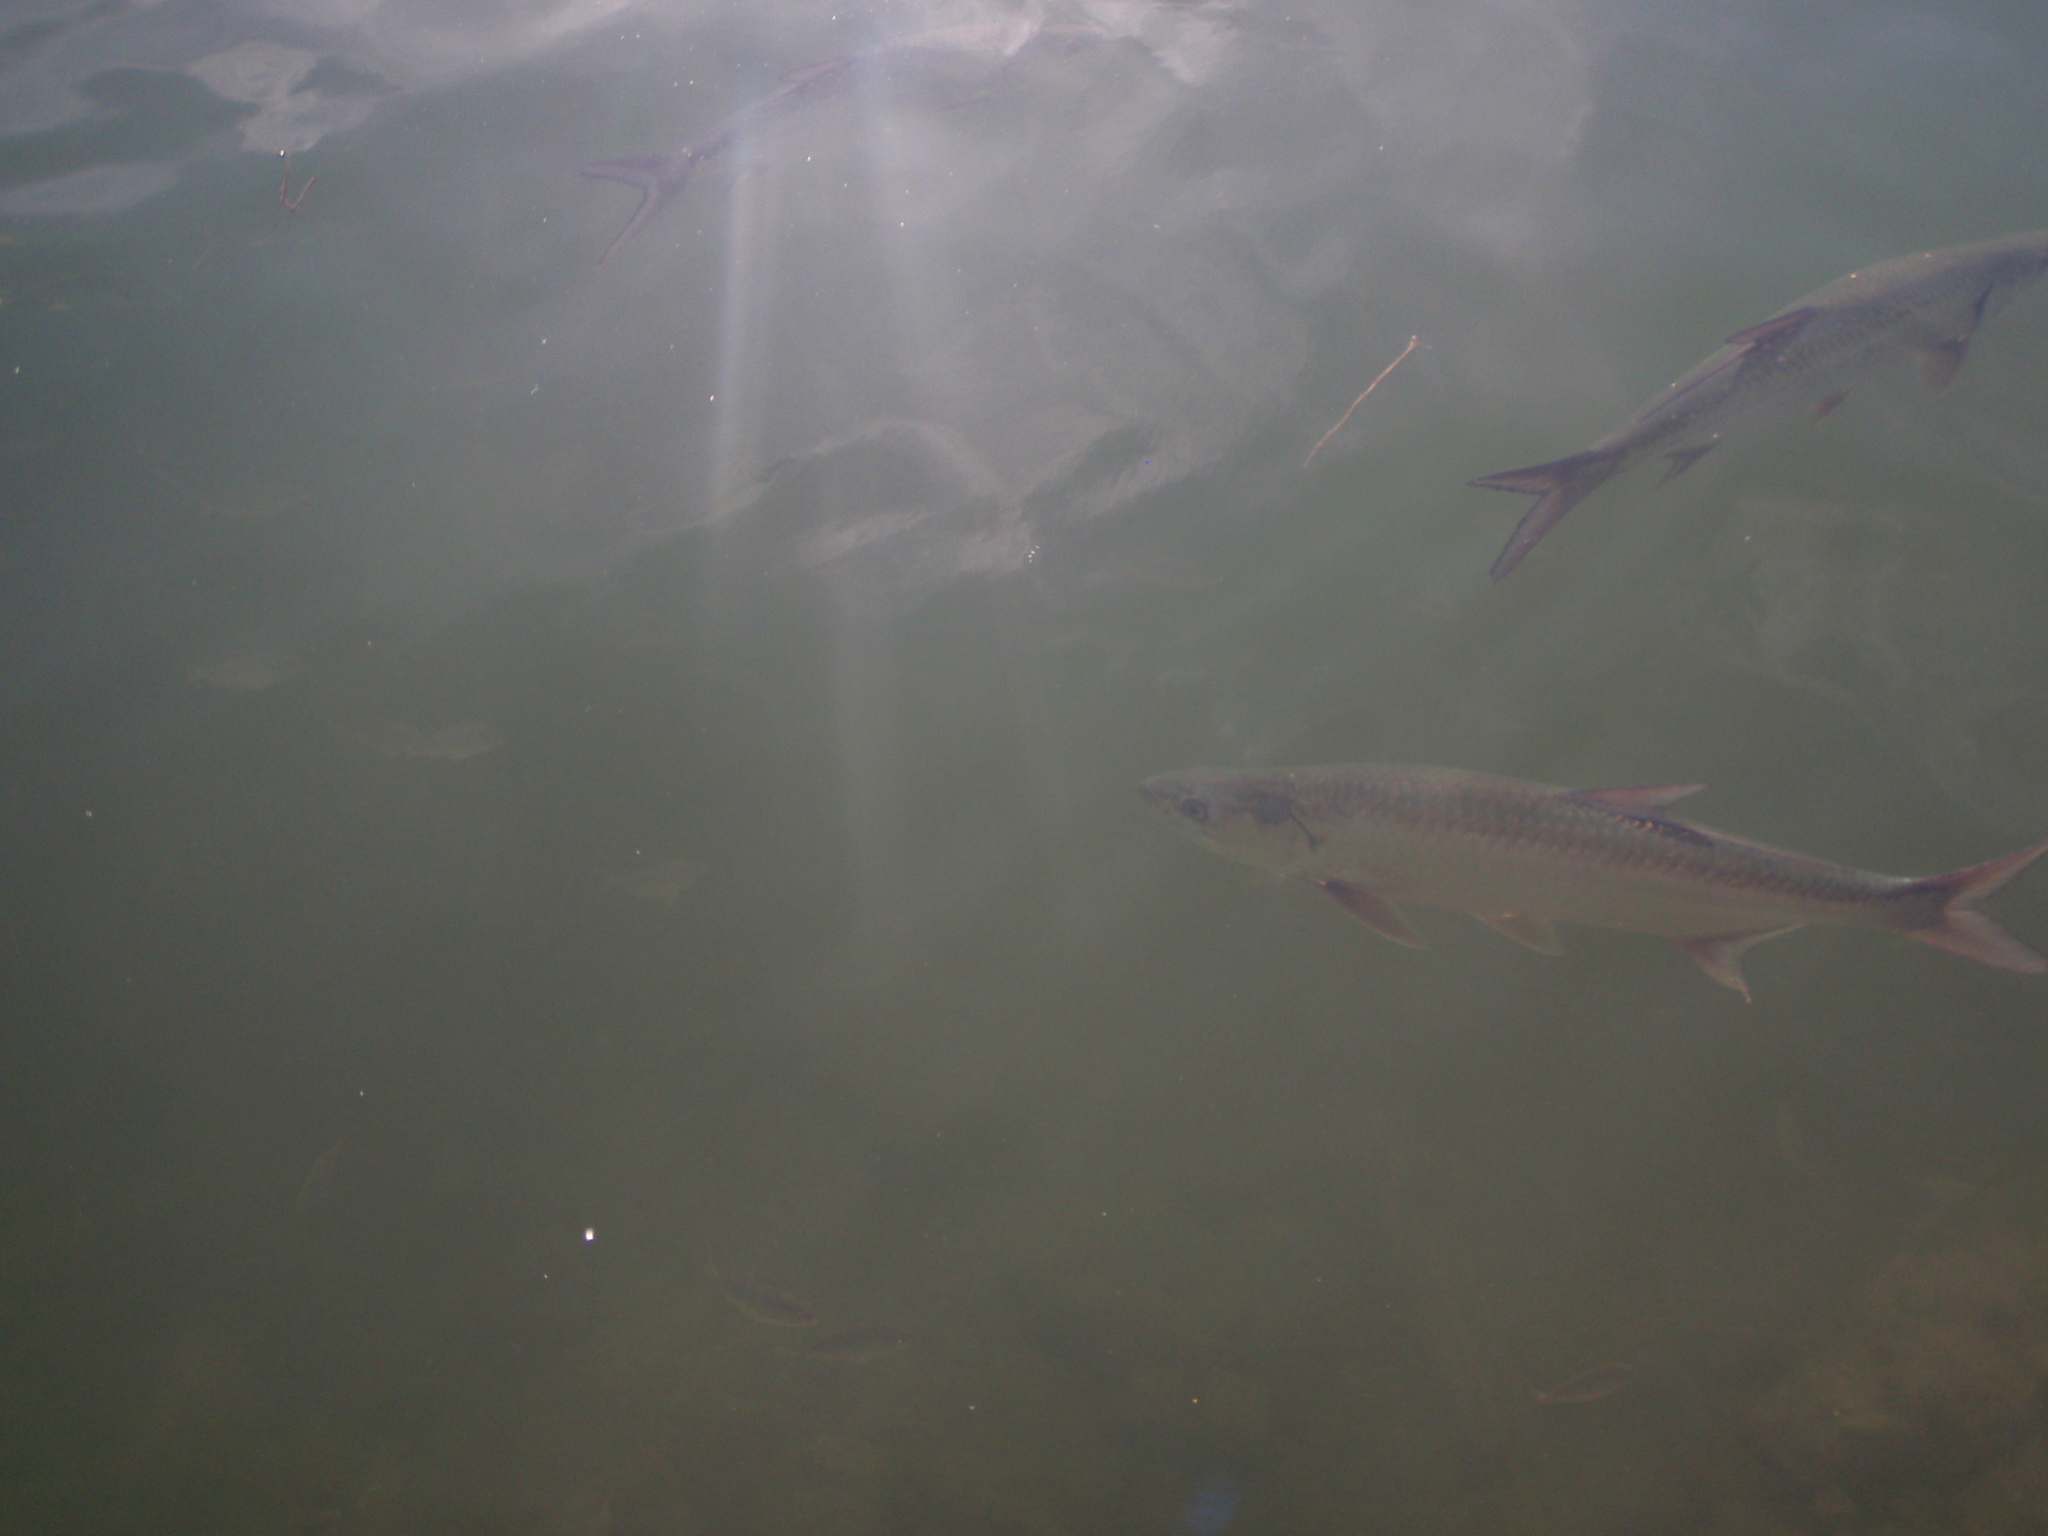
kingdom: Animalia
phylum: Chordata
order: Elopiformes
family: Megalopidae
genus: Megalops
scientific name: Megalops atlanticus
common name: Tarpon
